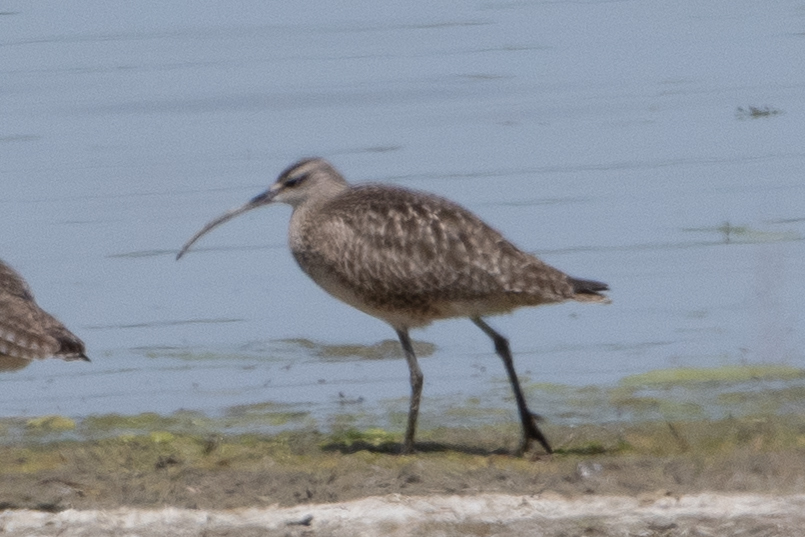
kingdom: Animalia
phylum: Chordata
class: Aves
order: Charadriiformes
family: Scolopacidae
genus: Numenius
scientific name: Numenius phaeopus
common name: Whimbrel
